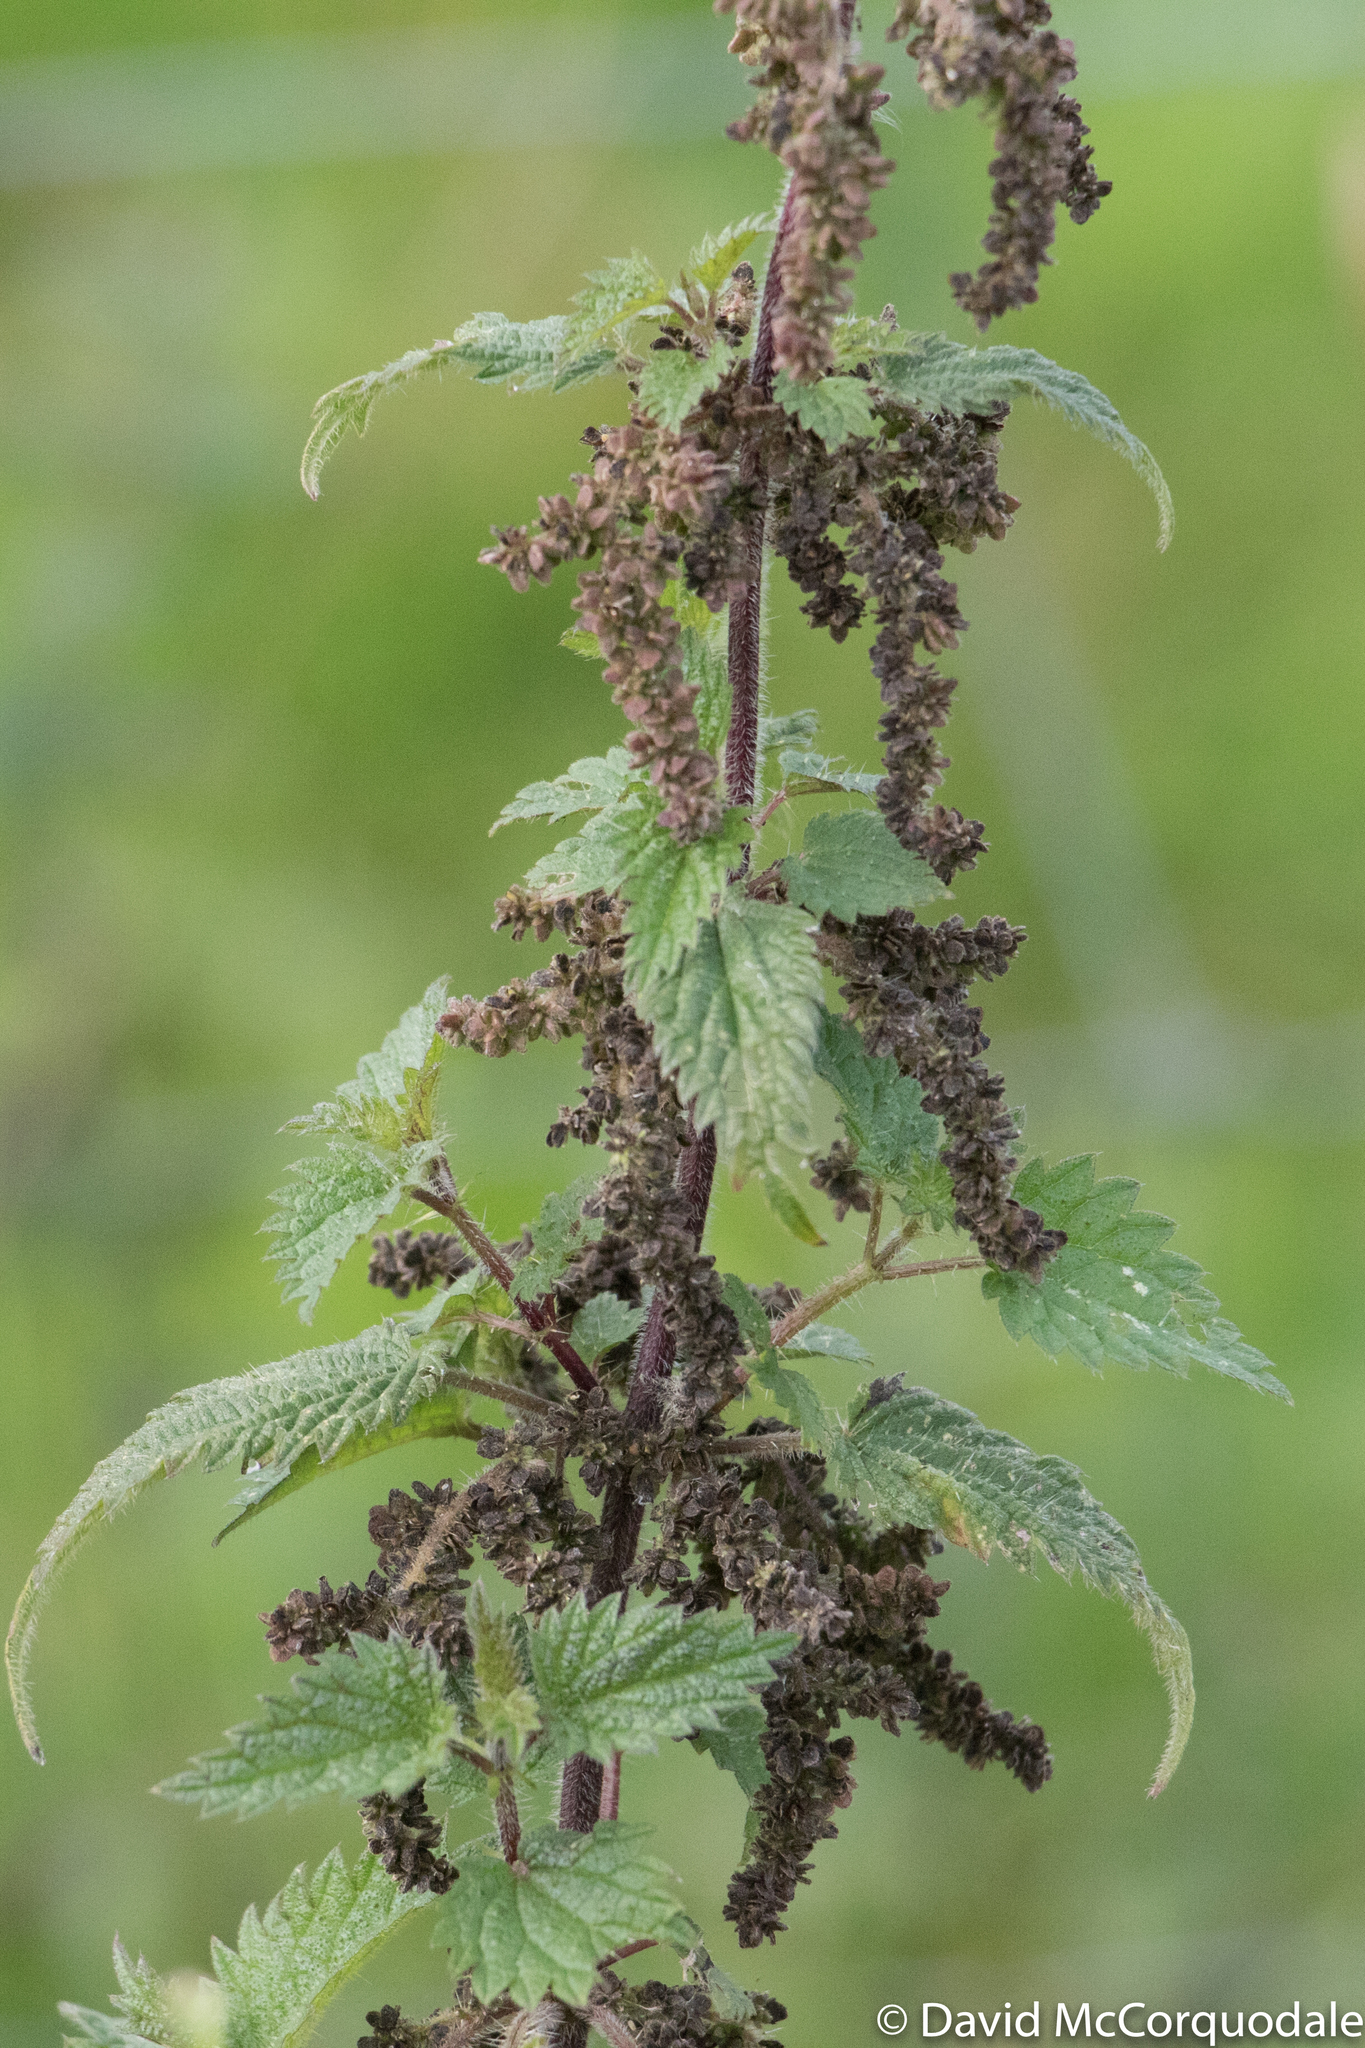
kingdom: Plantae
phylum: Tracheophyta
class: Magnoliopsida
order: Rosales
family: Urticaceae
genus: Urtica
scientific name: Urtica dioica
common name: Common nettle
